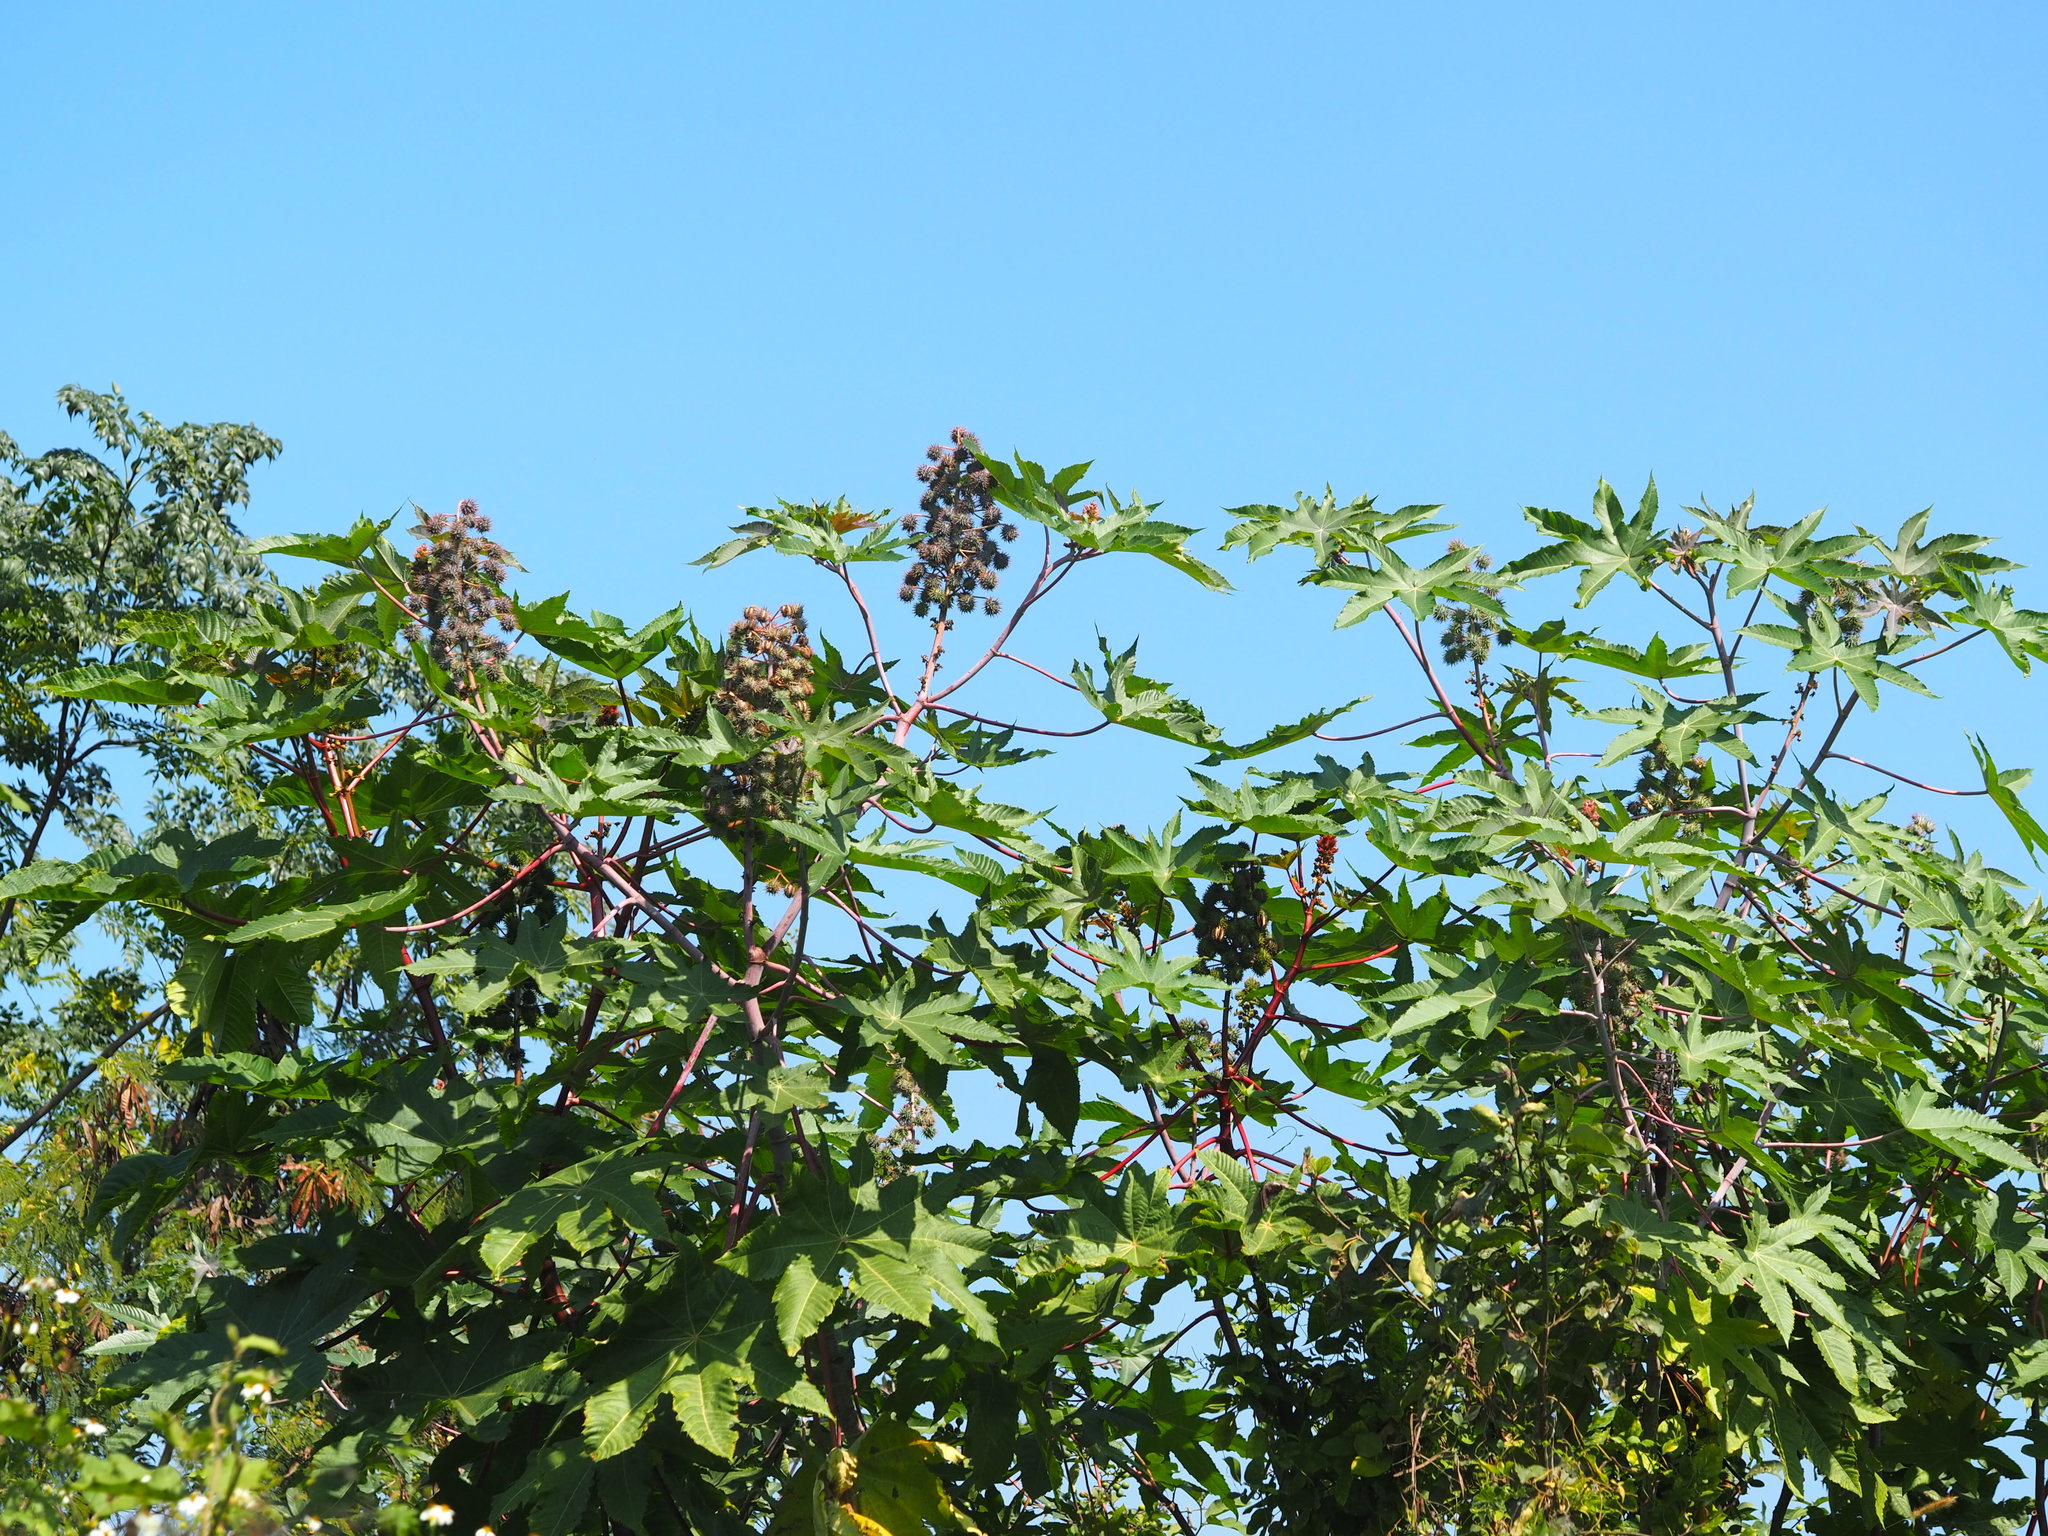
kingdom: Plantae
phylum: Tracheophyta
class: Magnoliopsida
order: Malpighiales
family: Euphorbiaceae
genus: Ricinus
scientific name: Ricinus communis
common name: Castor-oil-plant
